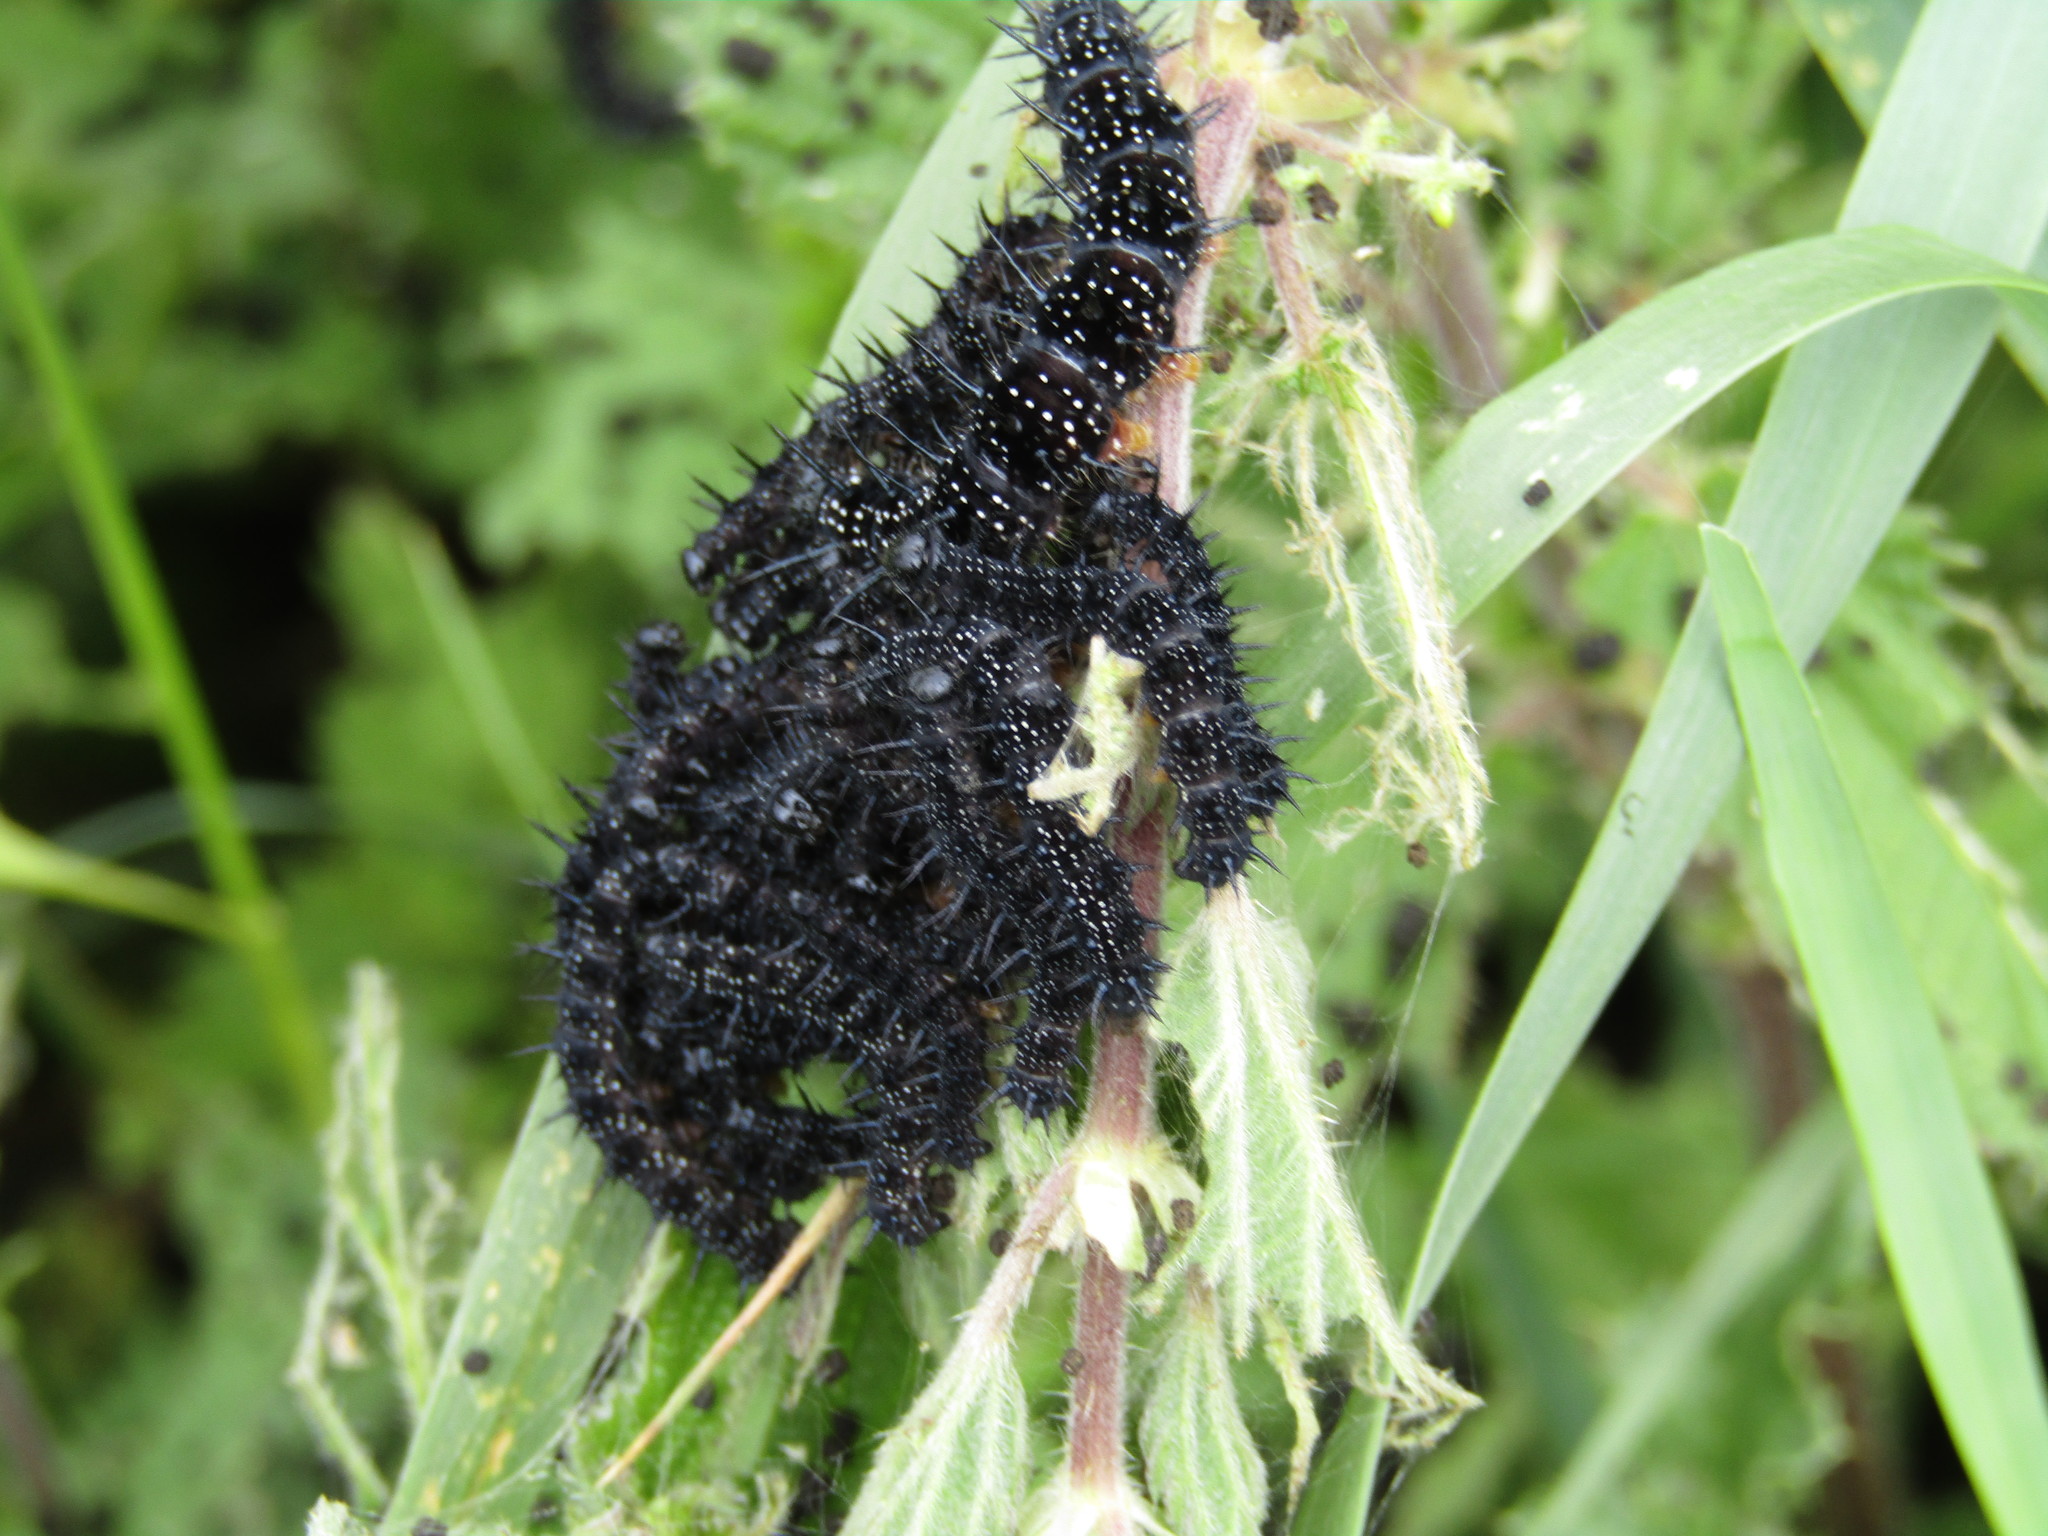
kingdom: Animalia
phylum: Arthropoda
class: Insecta
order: Lepidoptera
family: Nymphalidae
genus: Aglais
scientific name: Aglais io
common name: Peacock
